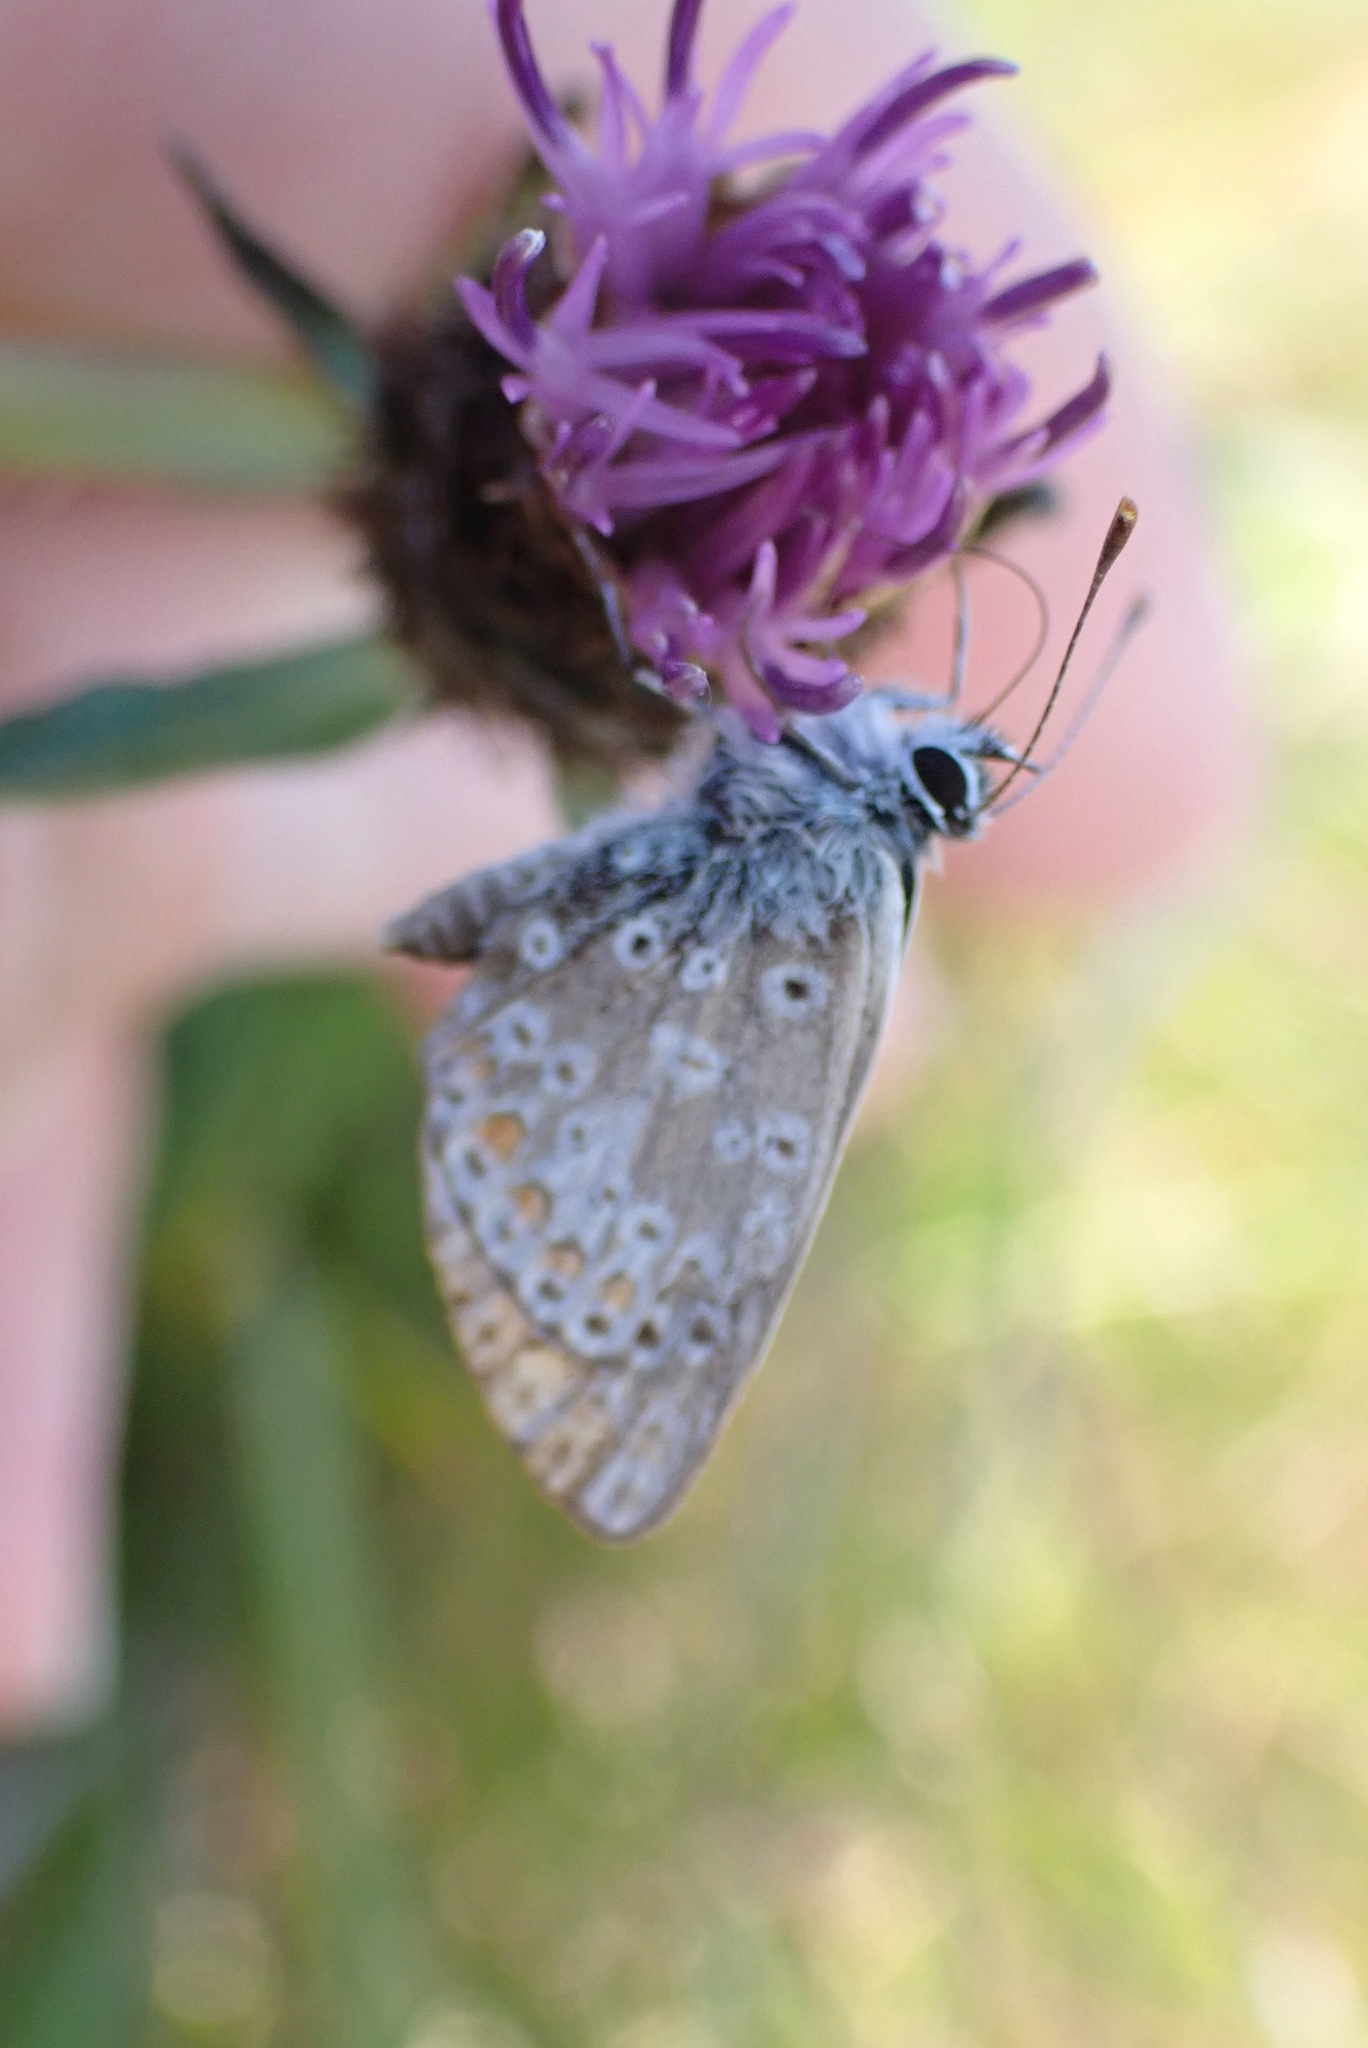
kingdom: Animalia
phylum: Arthropoda
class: Insecta
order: Lepidoptera
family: Lycaenidae
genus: Aricia
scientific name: Aricia agestis
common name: Brown argus
